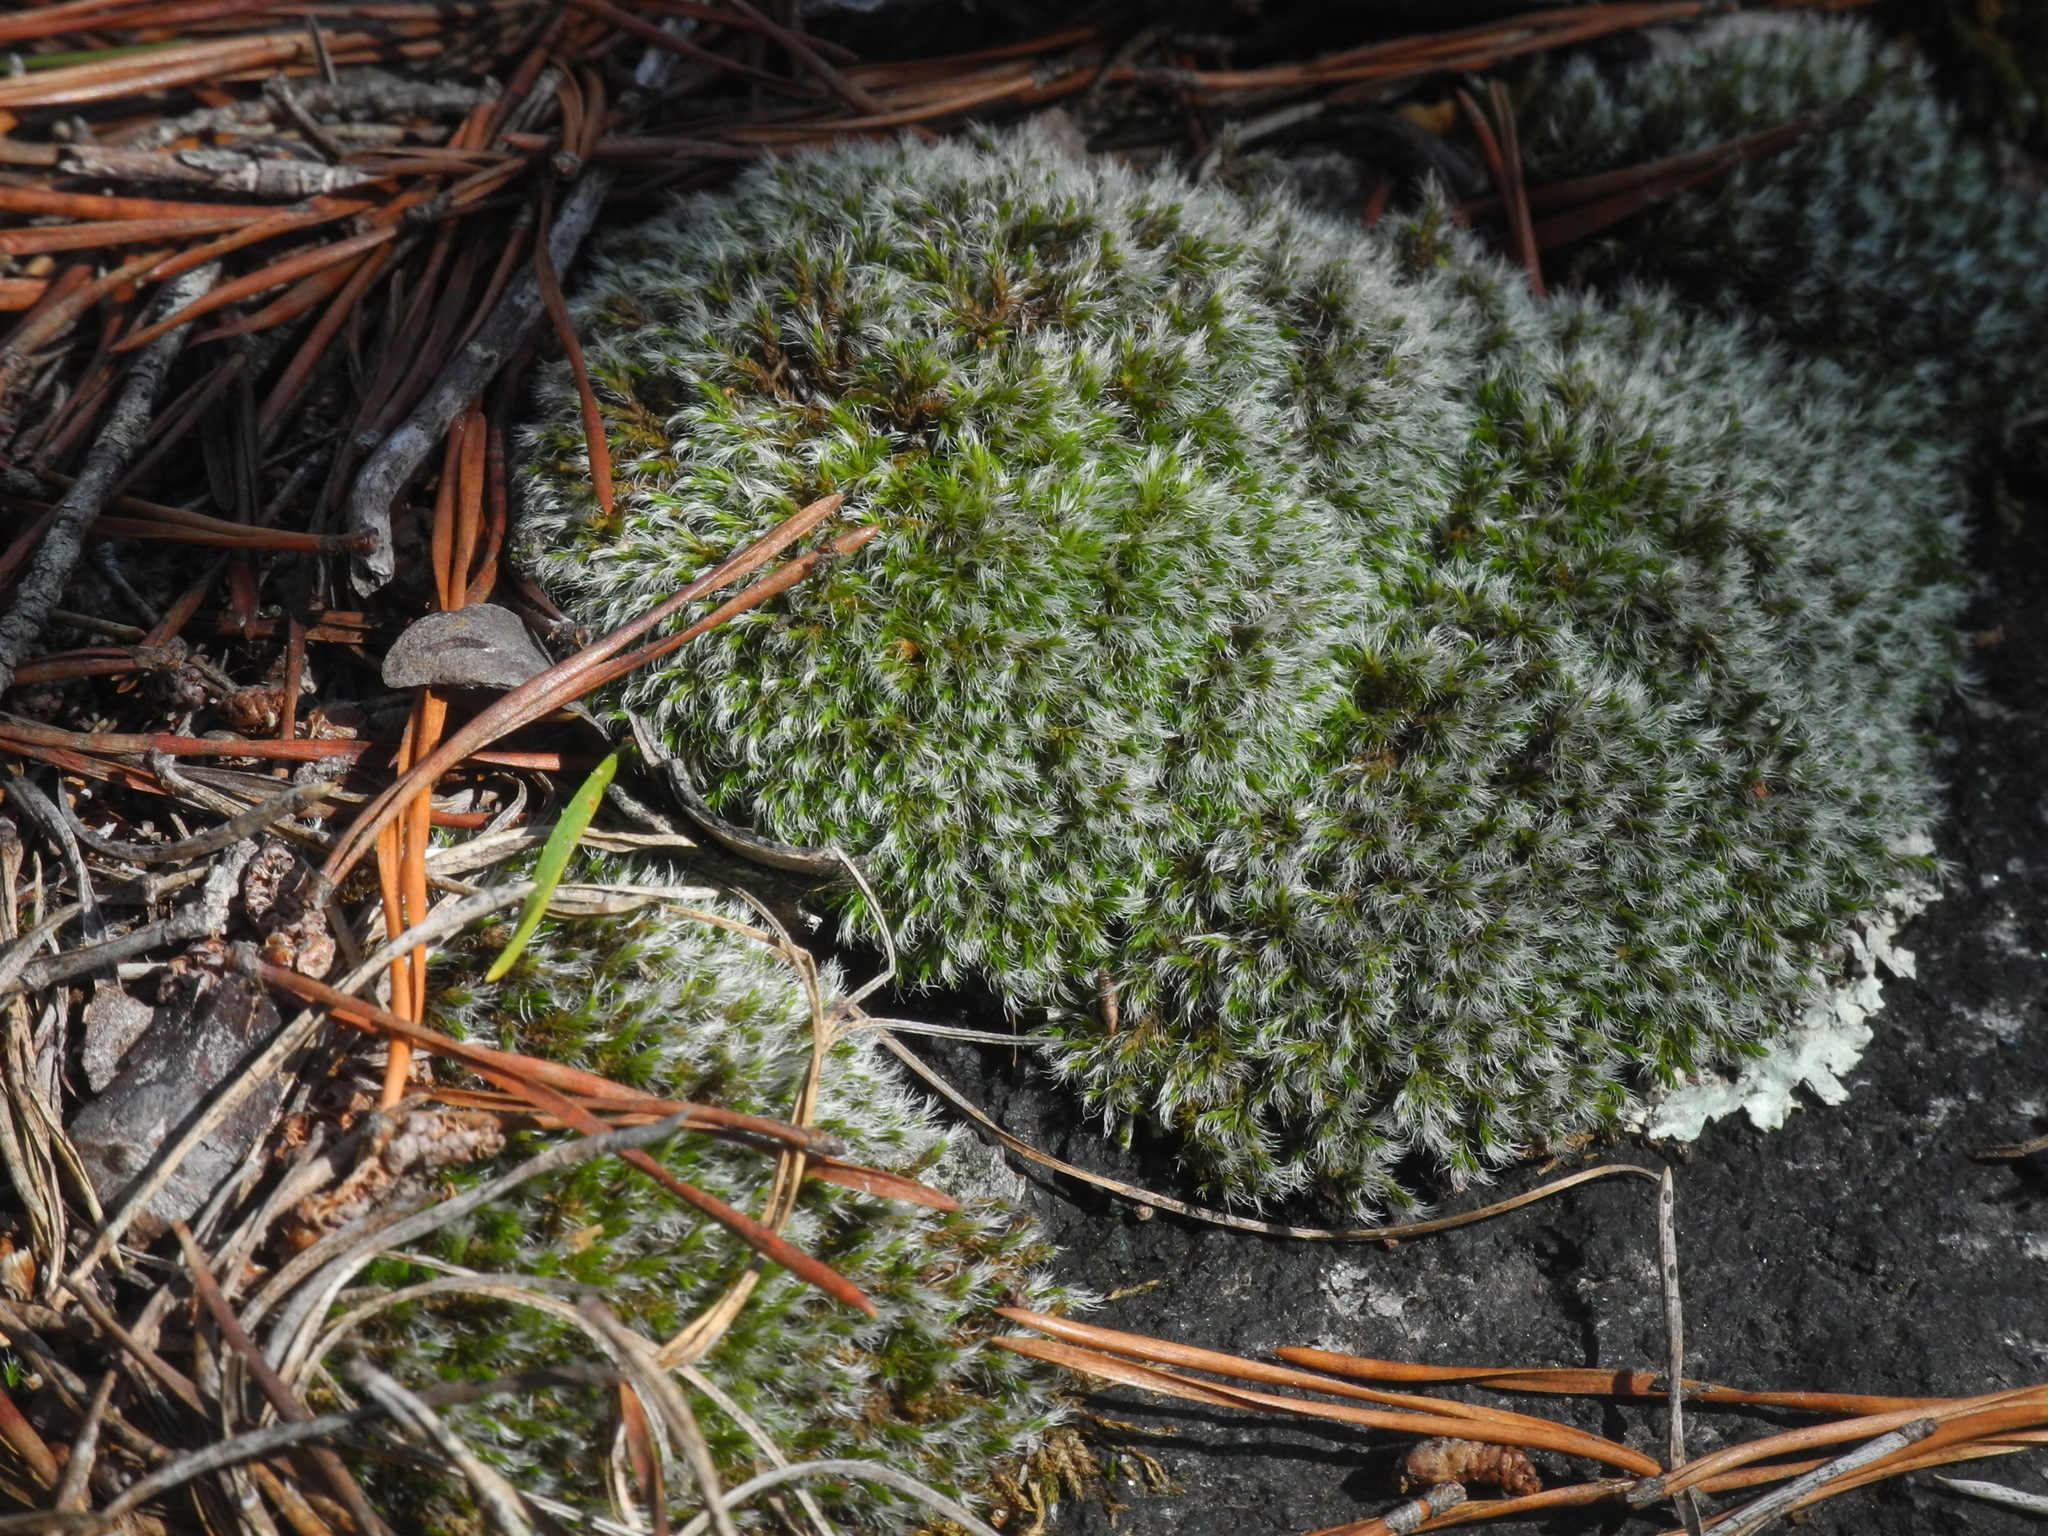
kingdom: Plantae
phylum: Bryophyta
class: Bryopsida
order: Grimmiales
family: Grimmiaceae
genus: Grimmia
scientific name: Grimmia pulvinata
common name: Grey-cushioned grimmia
